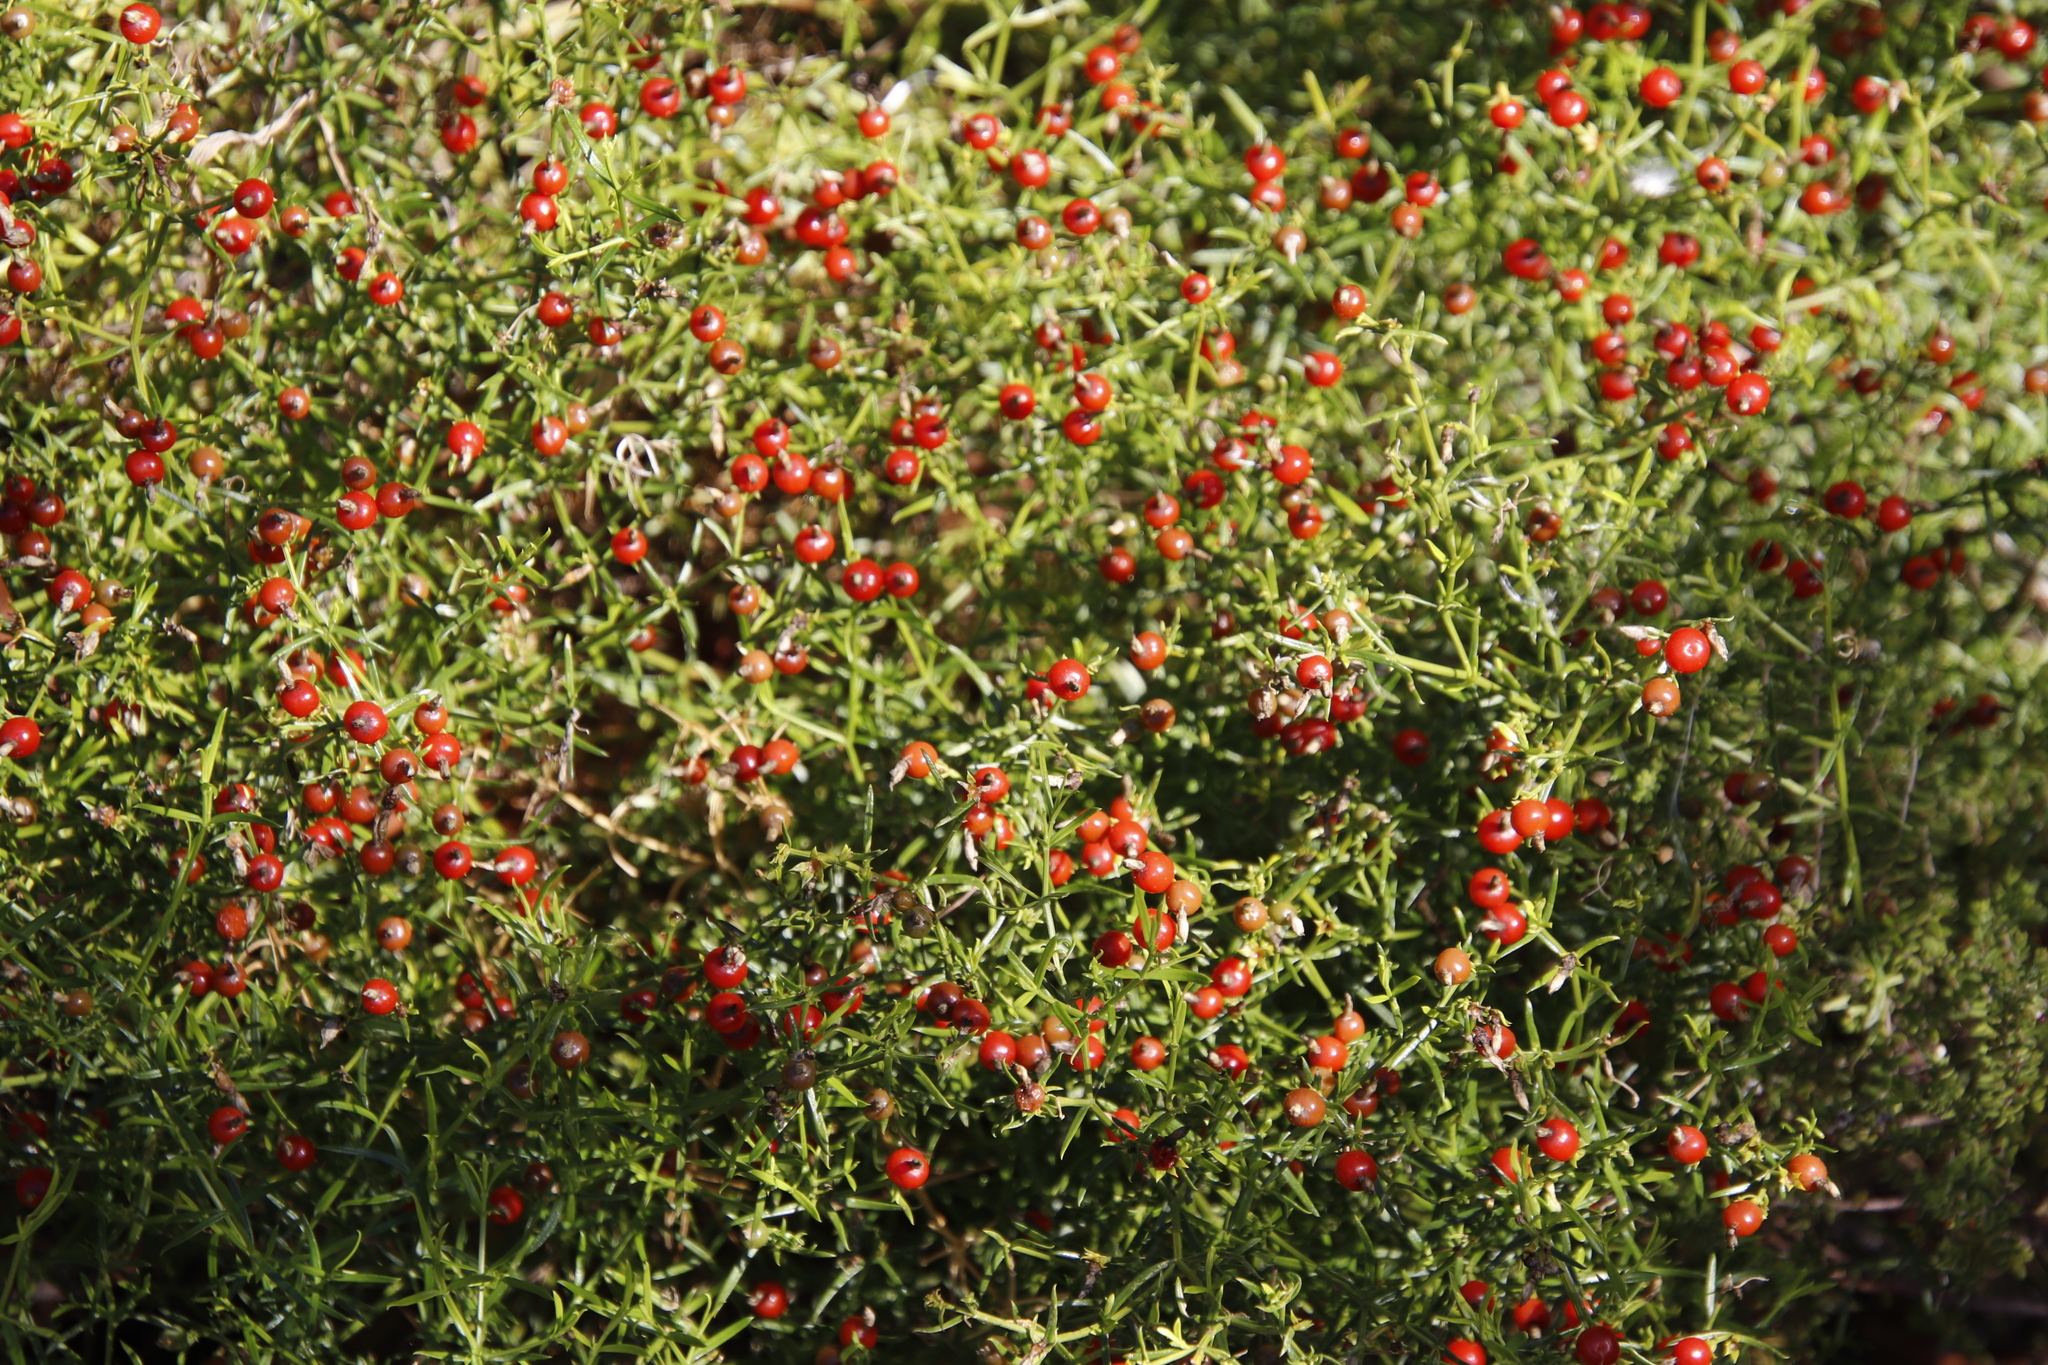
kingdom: Plantae
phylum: Tracheophyta
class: Magnoliopsida
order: Gentianales
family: Gentianaceae
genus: Chironia
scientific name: Chironia baccifera
